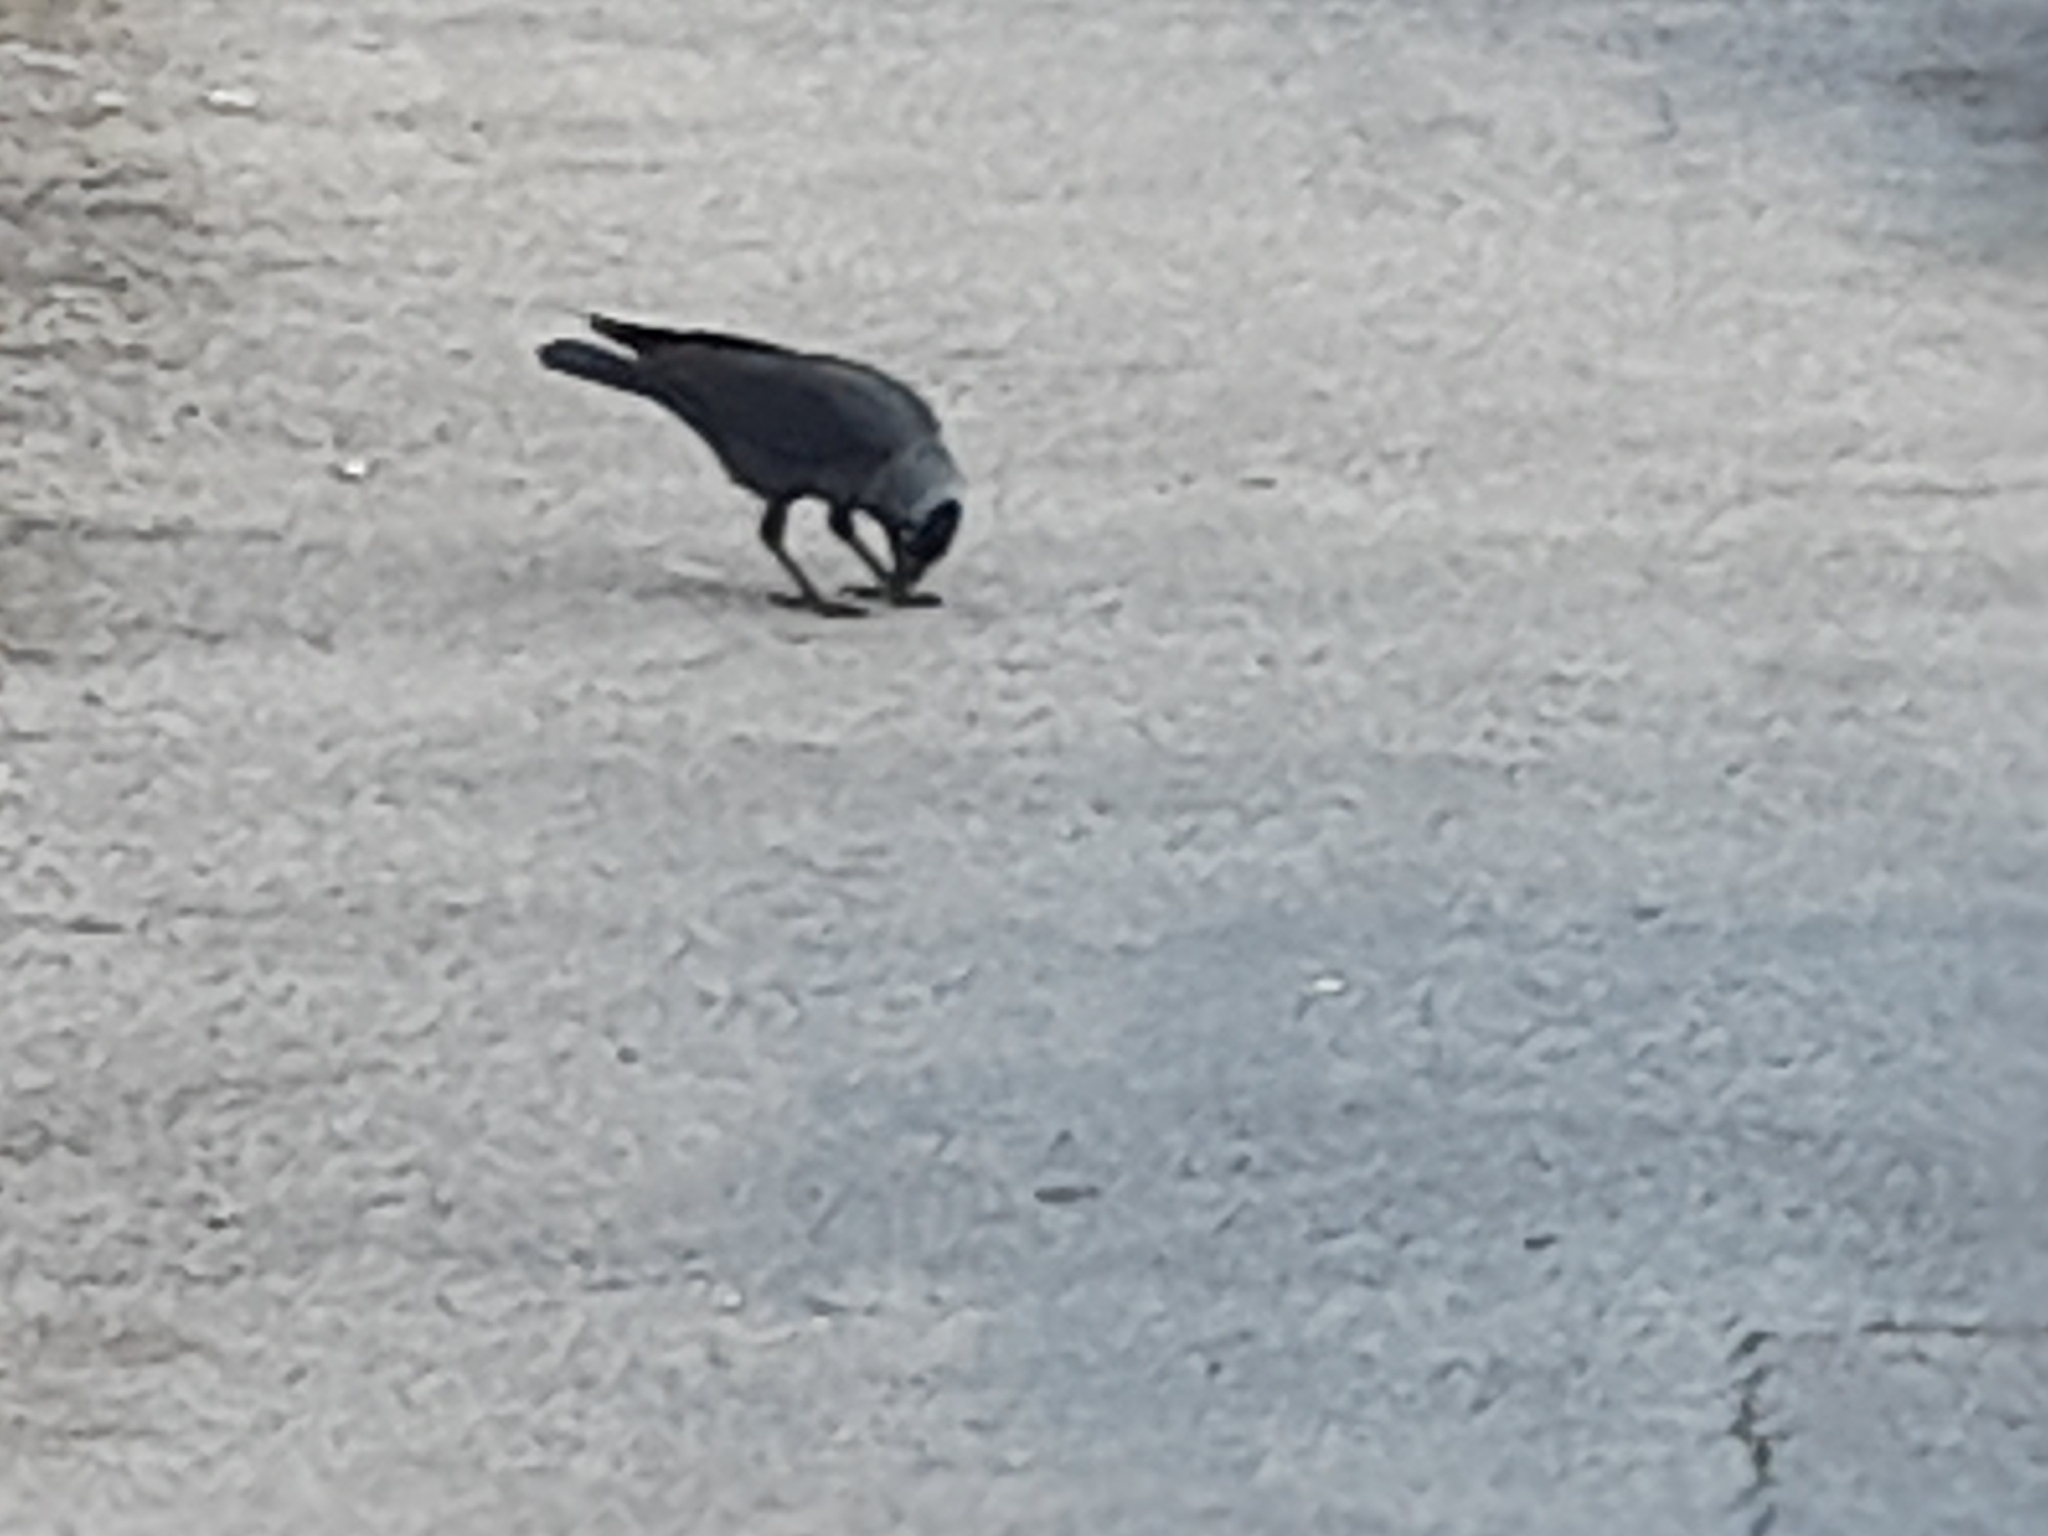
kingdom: Animalia
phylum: Chordata
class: Aves
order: Passeriformes
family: Corvidae
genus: Coloeus
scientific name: Coloeus monedula
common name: Western jackdaw
